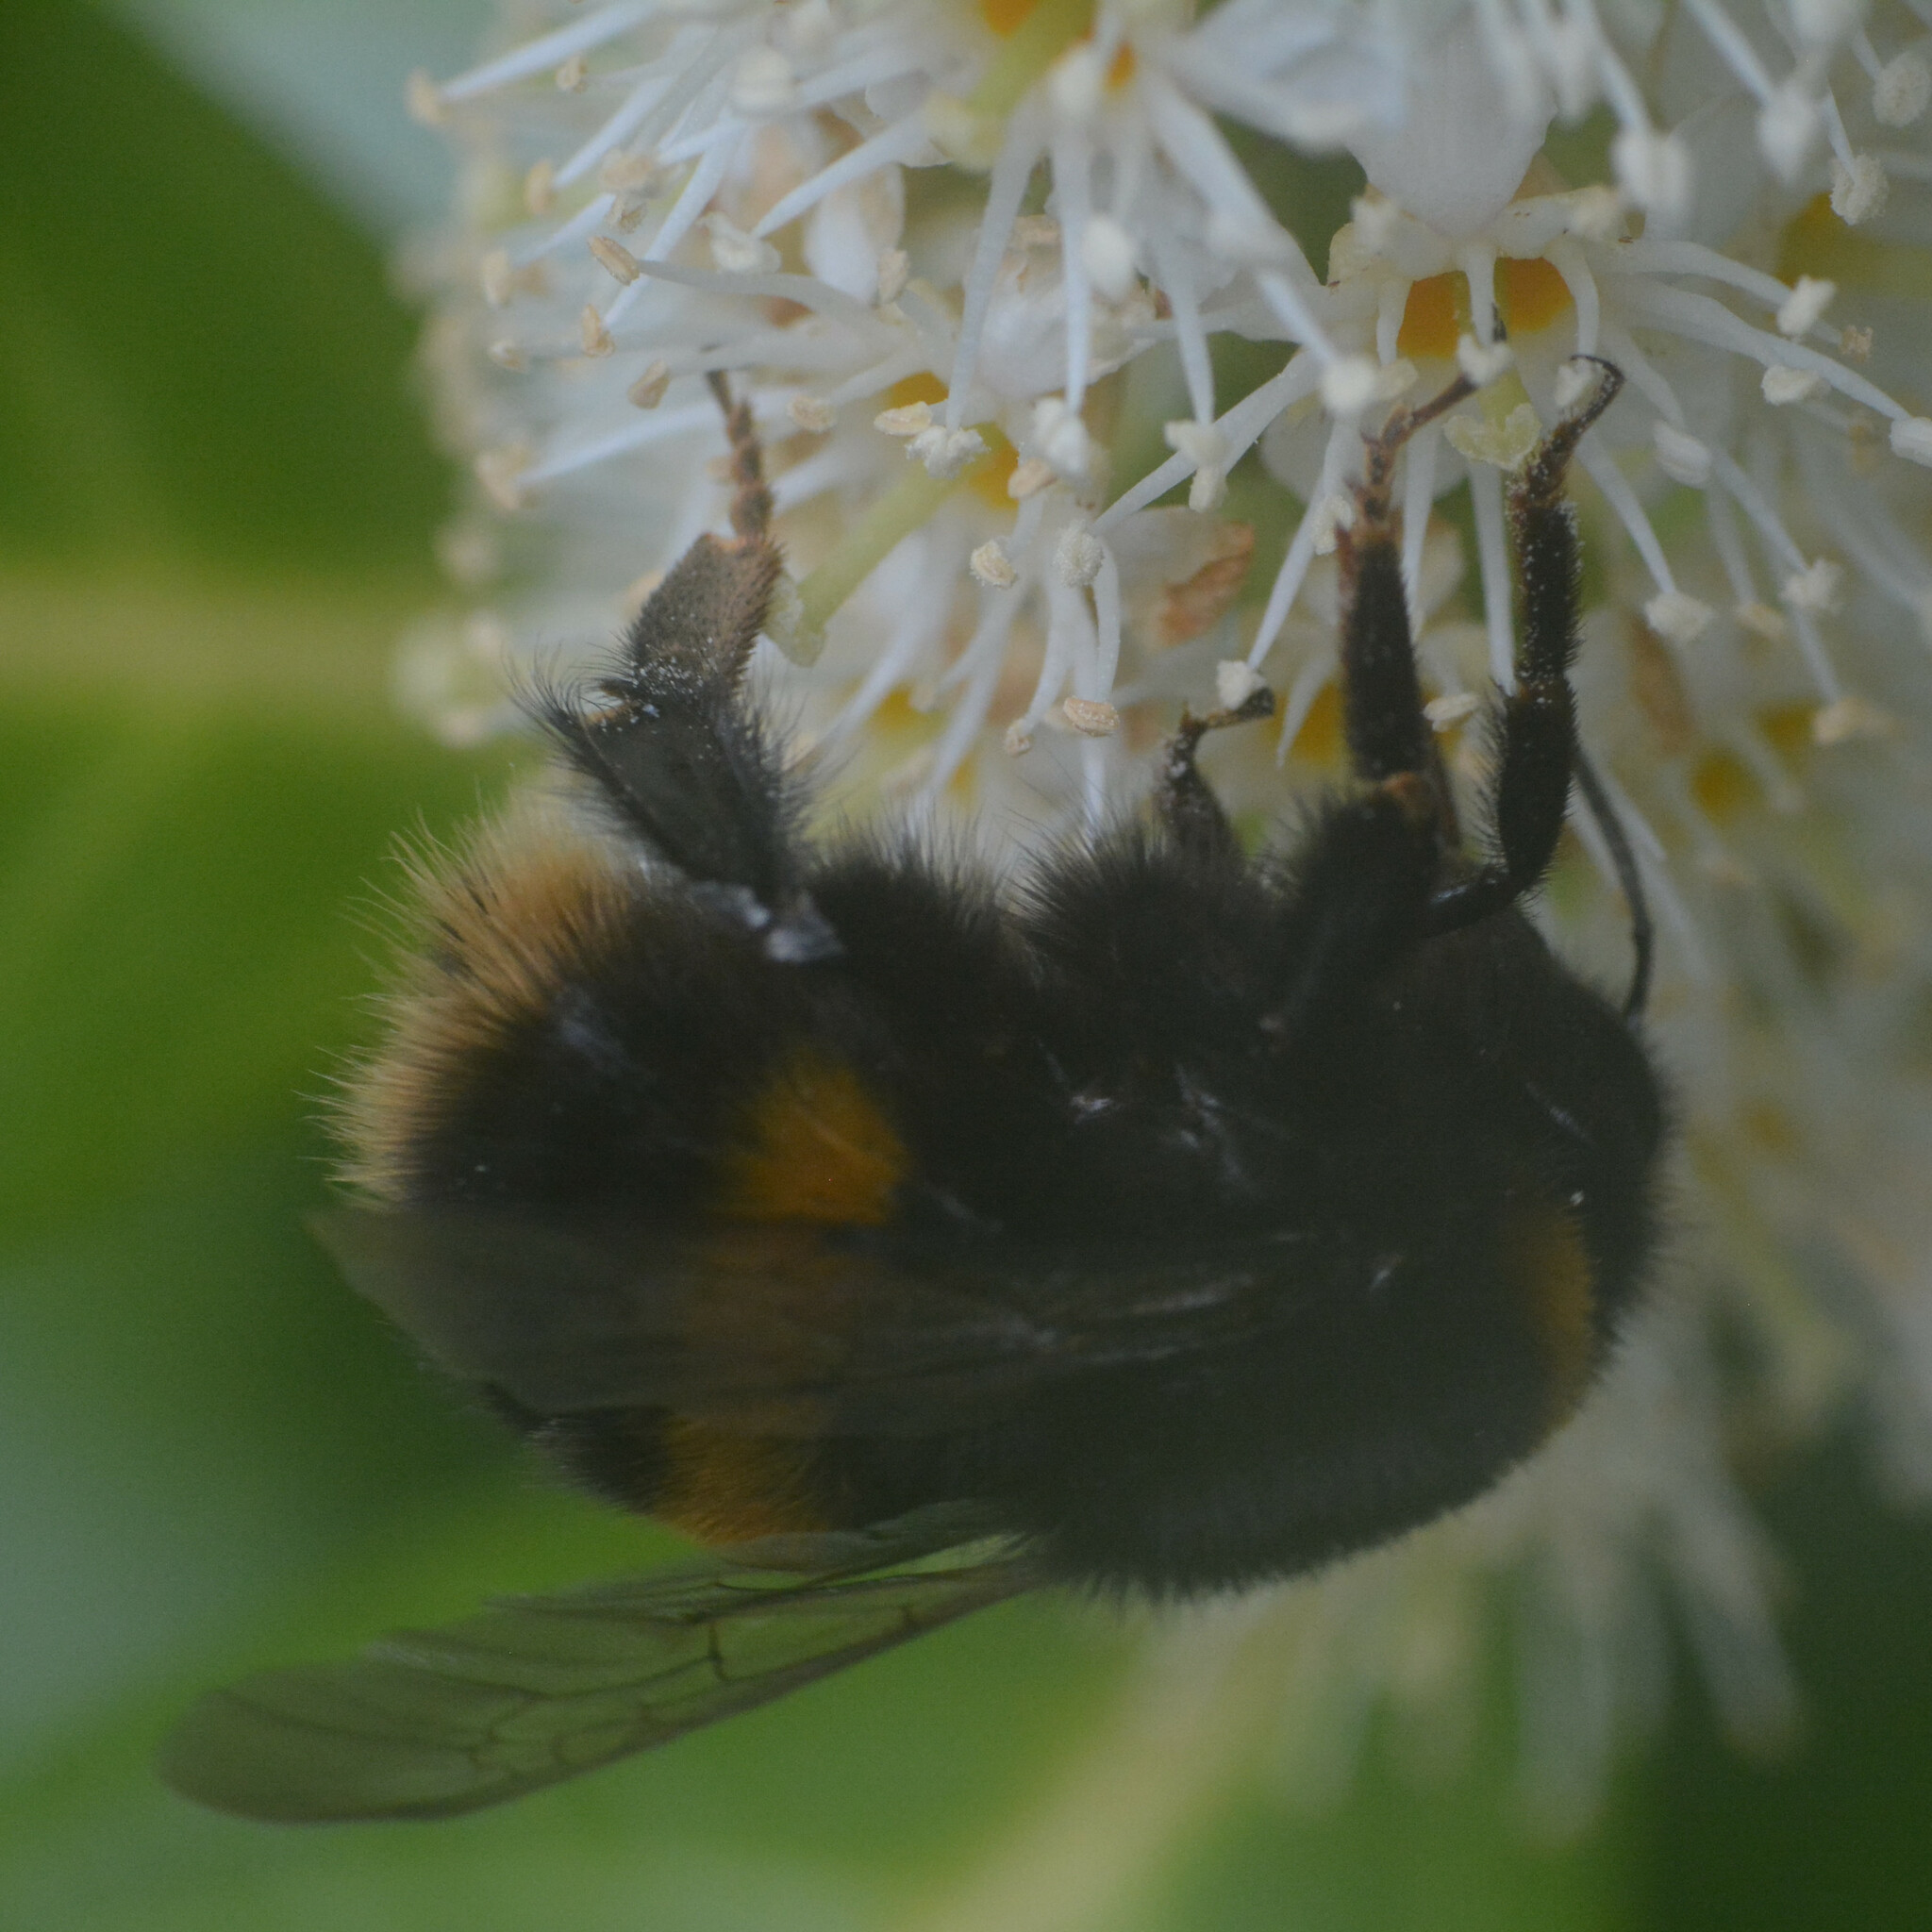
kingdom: Animalia
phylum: Arthropoda
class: Insecta
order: Hymenoptera
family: Apidae
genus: Bombus
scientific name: Bombus terrestris
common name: Buff-tailed bumblebee
